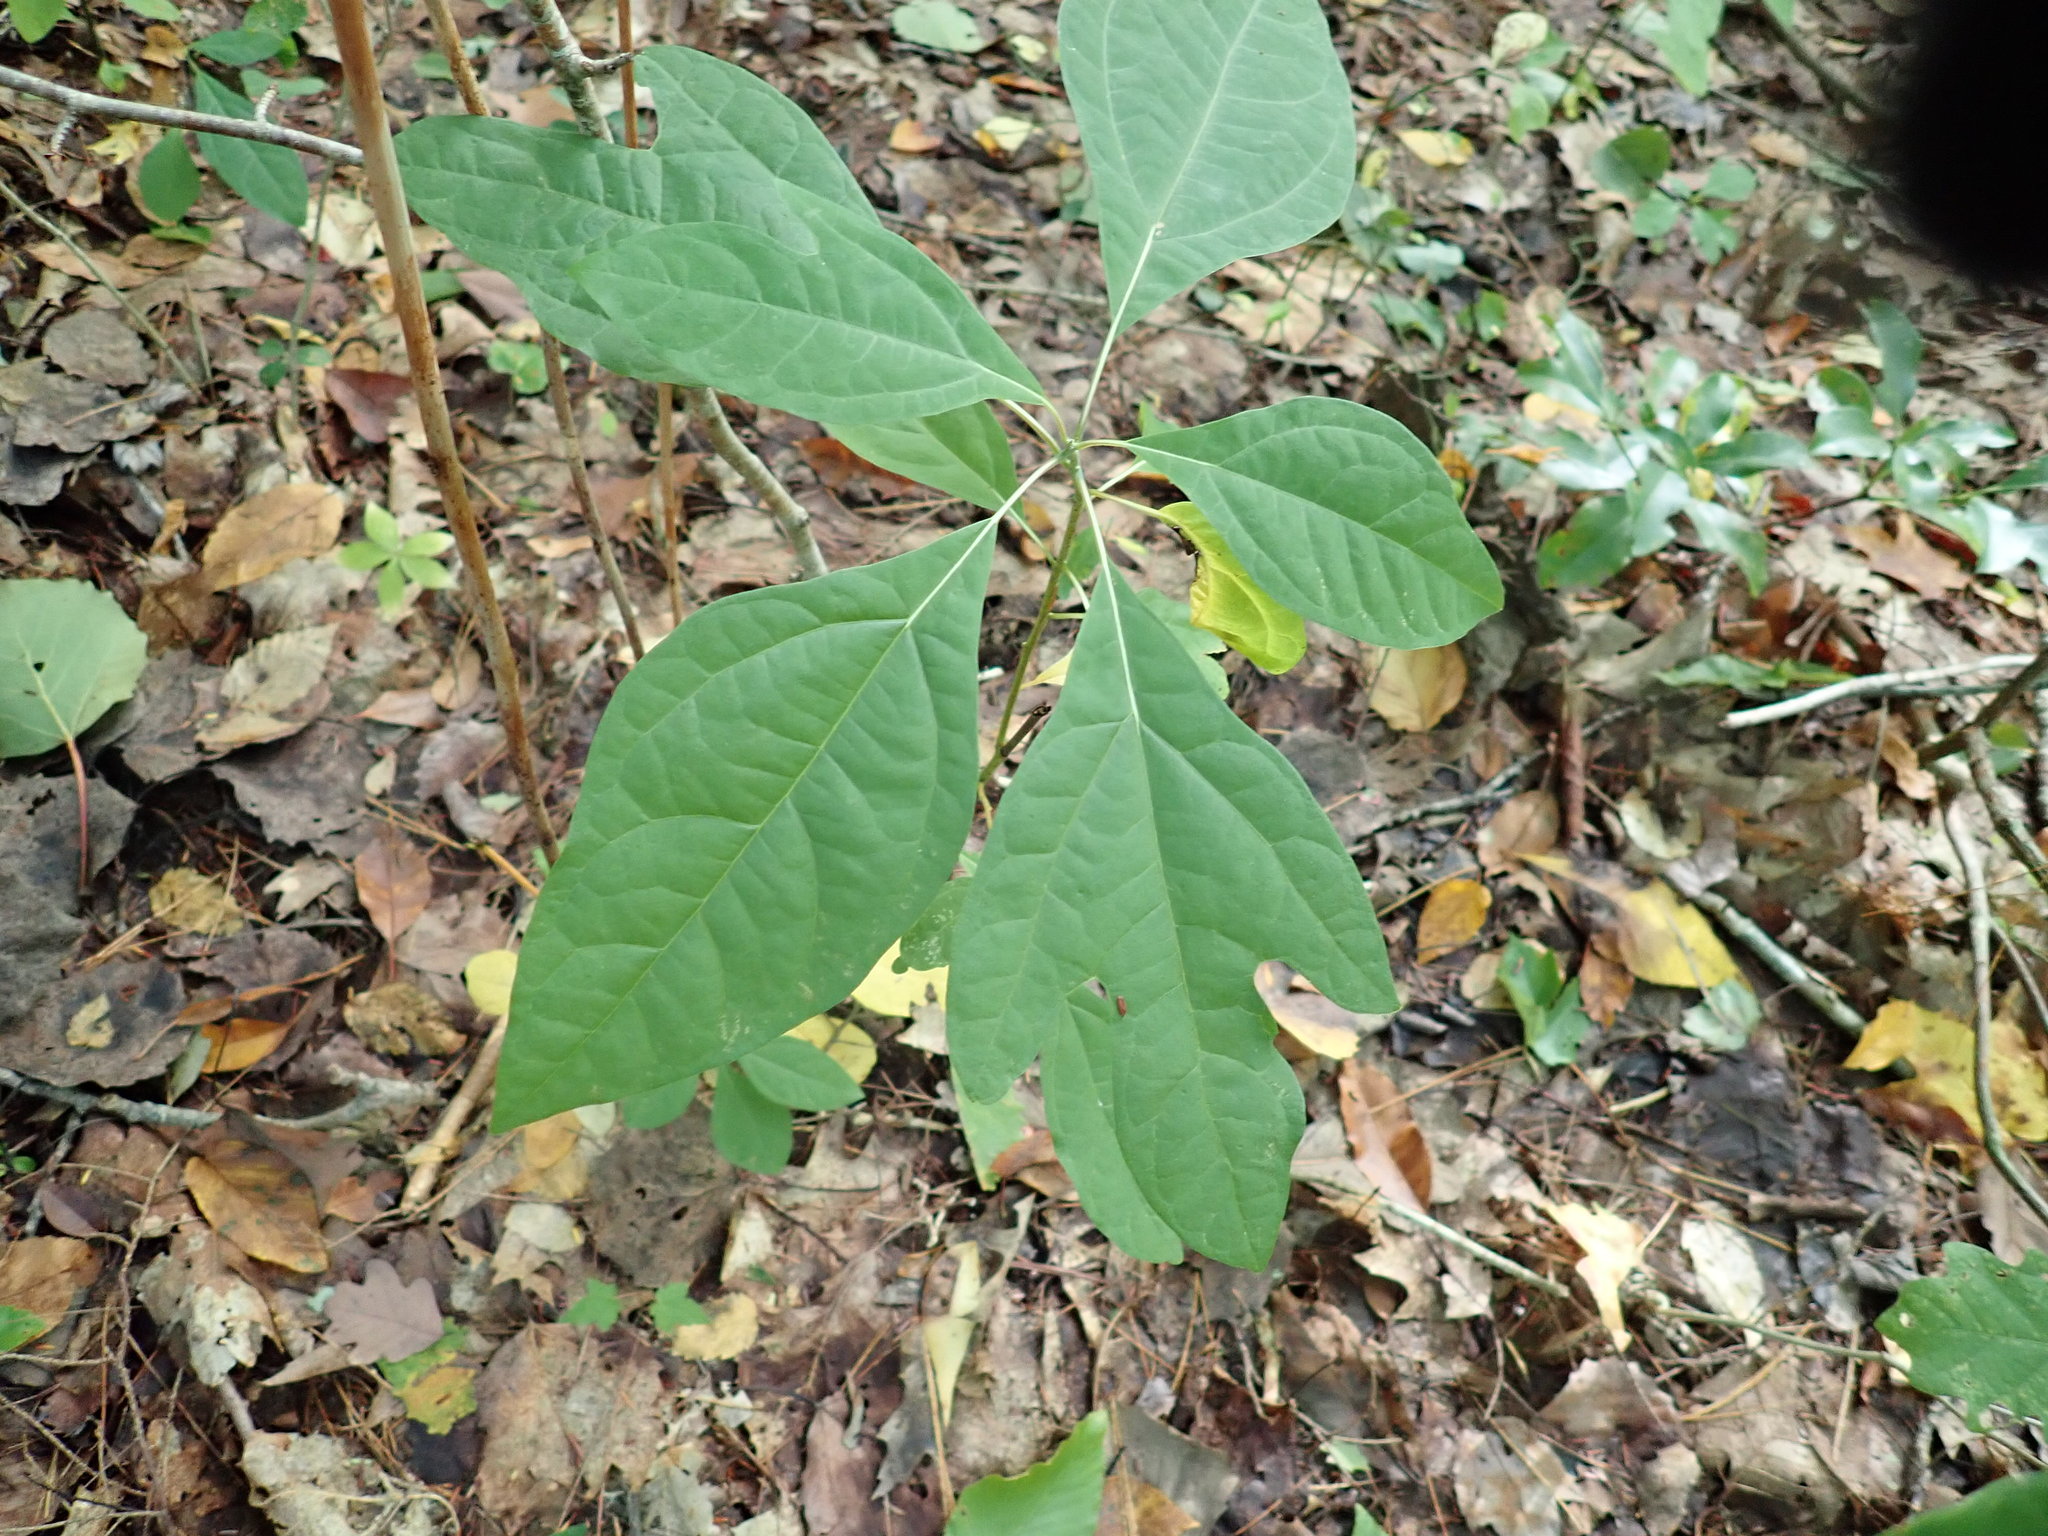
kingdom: Plantae
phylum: Tracheophyta
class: Magnoliopsida
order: Laurales
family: Lauraceae
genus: Sassafras
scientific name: Sassafras albidum
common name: Sassafras
